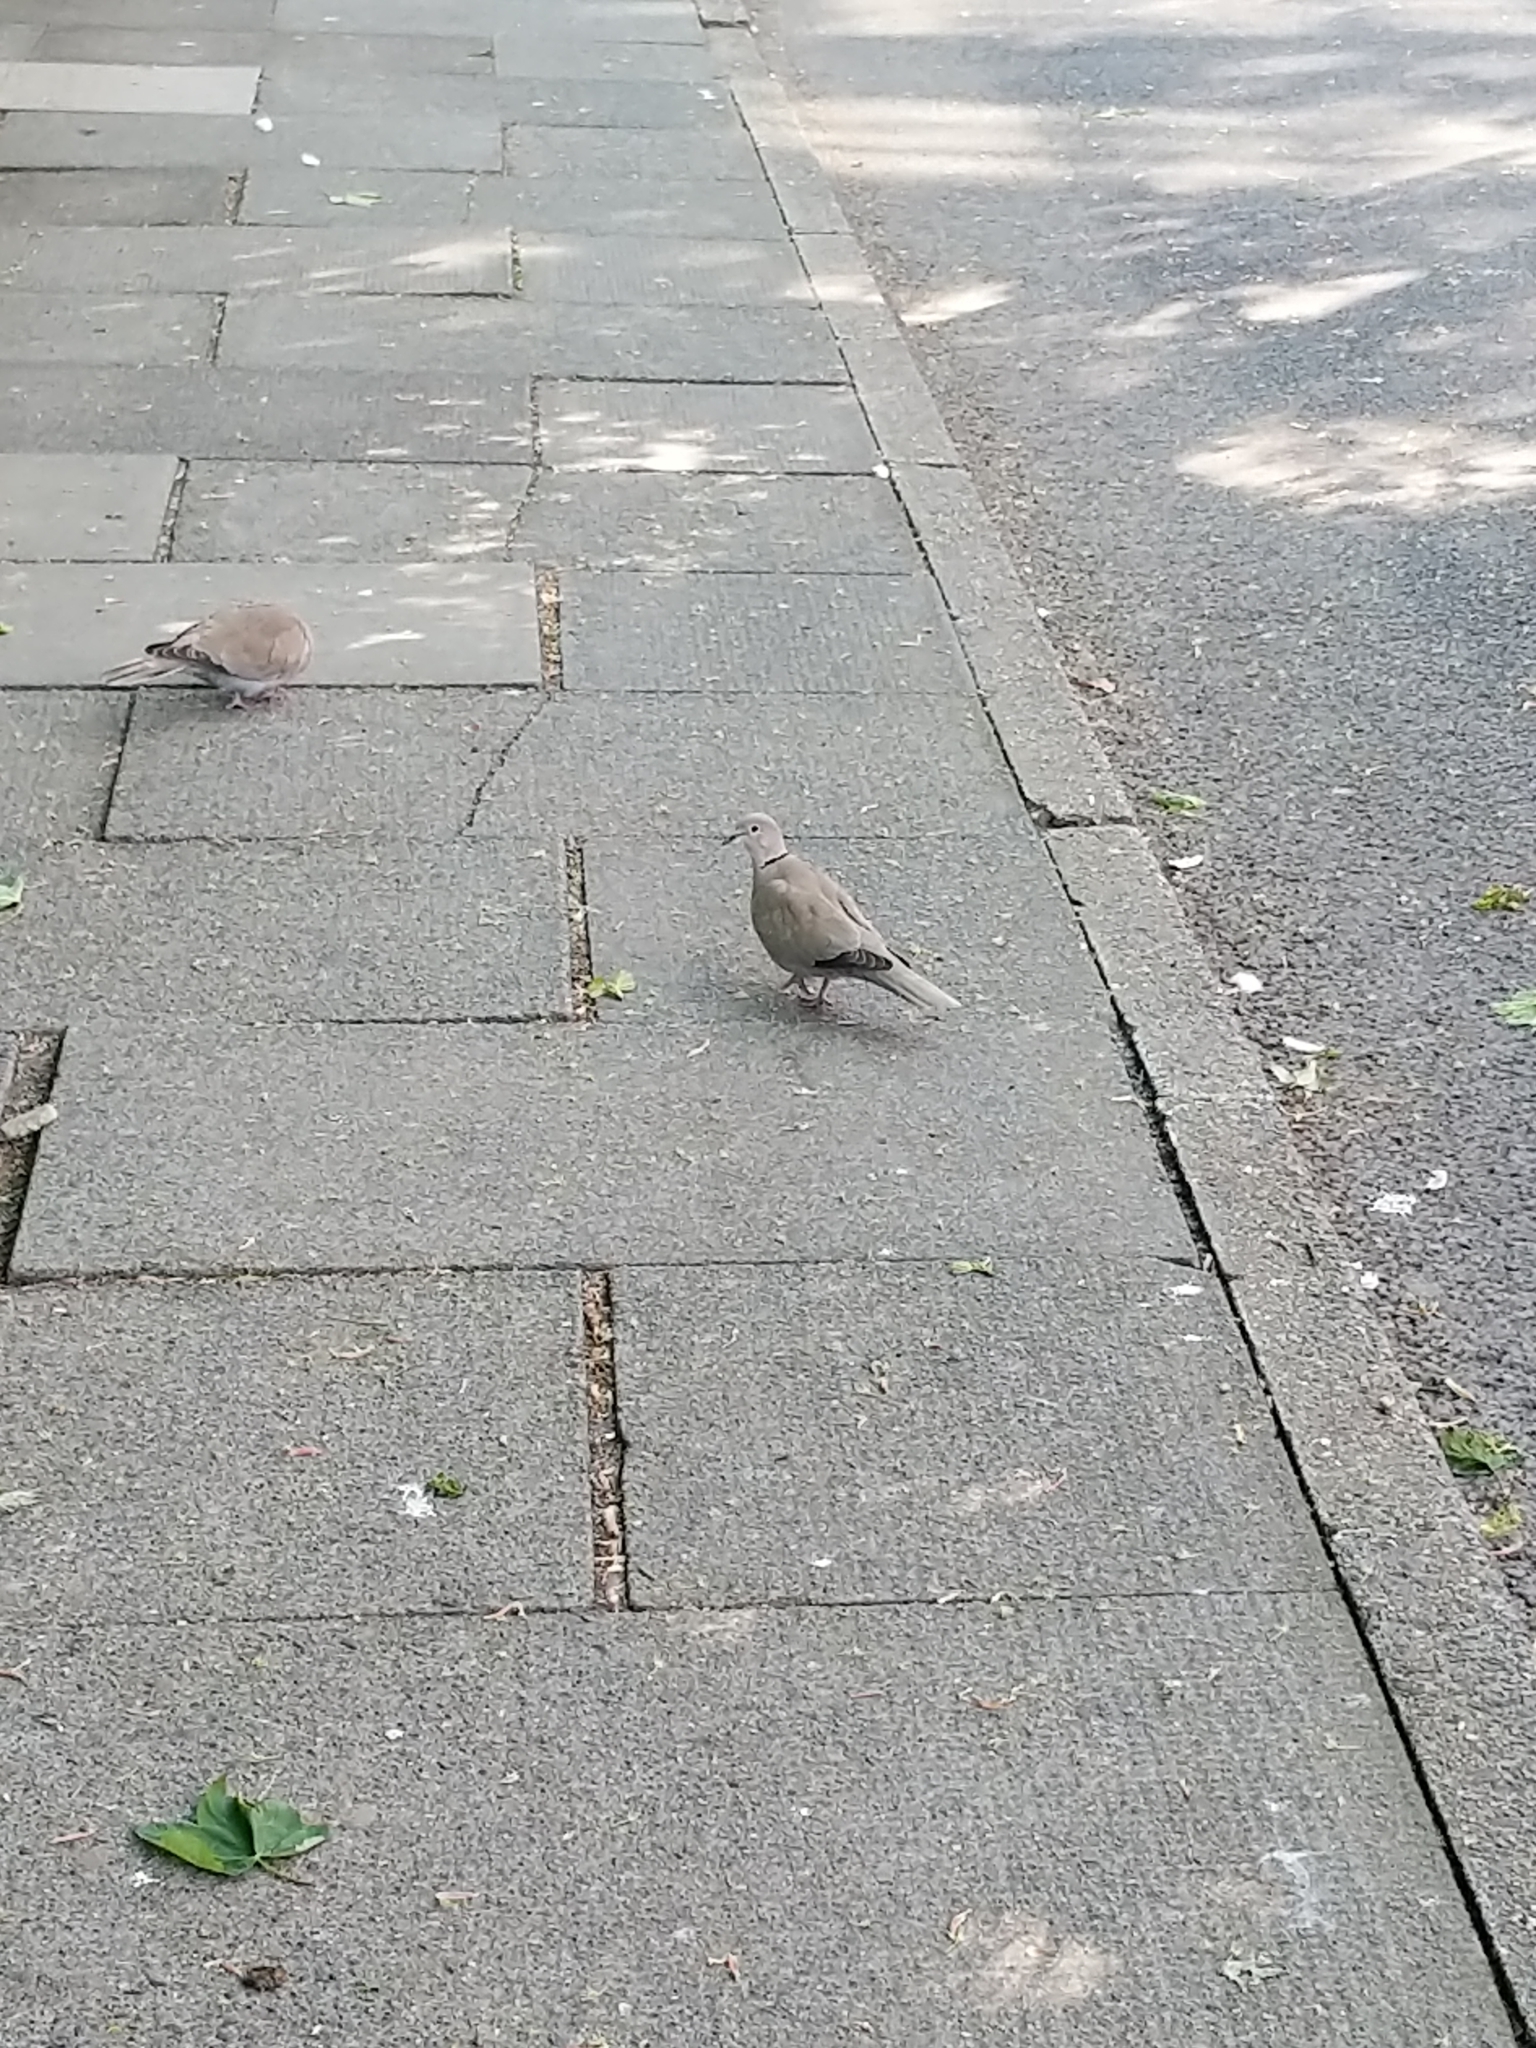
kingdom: Animalia
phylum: Chordata
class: Aves
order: Columbiformes
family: Columbidae
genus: Streptopelia
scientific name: Streptopelia decaocto
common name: Eurasian collared dove
